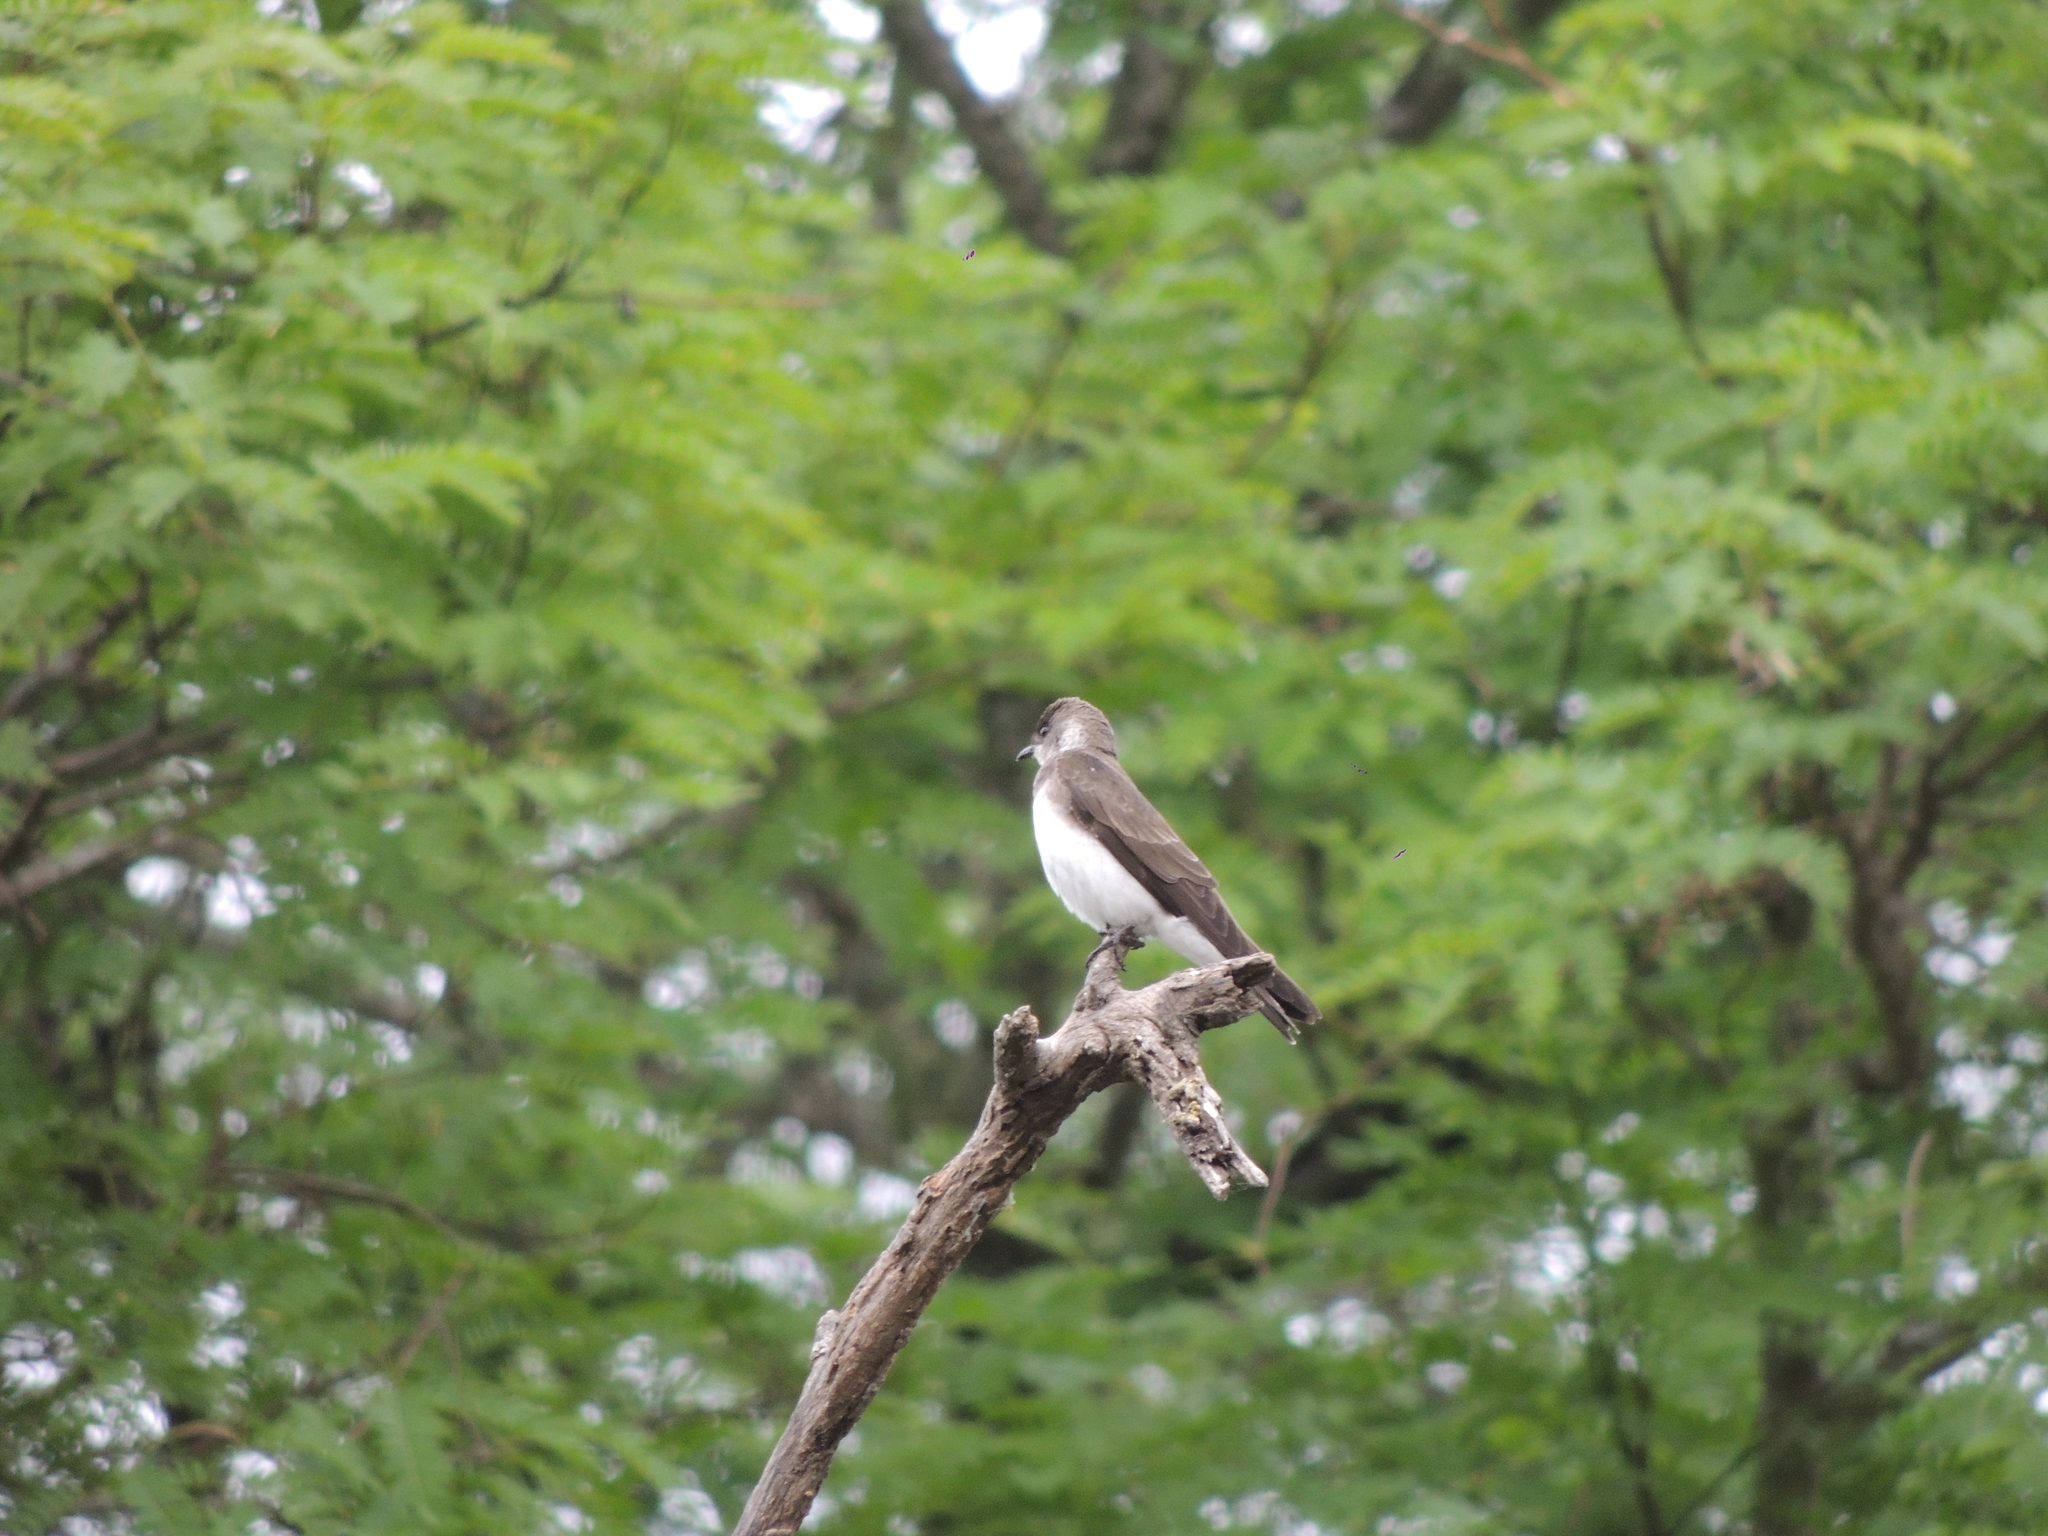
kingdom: Animalia
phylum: Chordata
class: Aves
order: Passeriformes
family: Hirundinidae
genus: Progne
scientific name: Progne tapera
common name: Brown-chested martin
